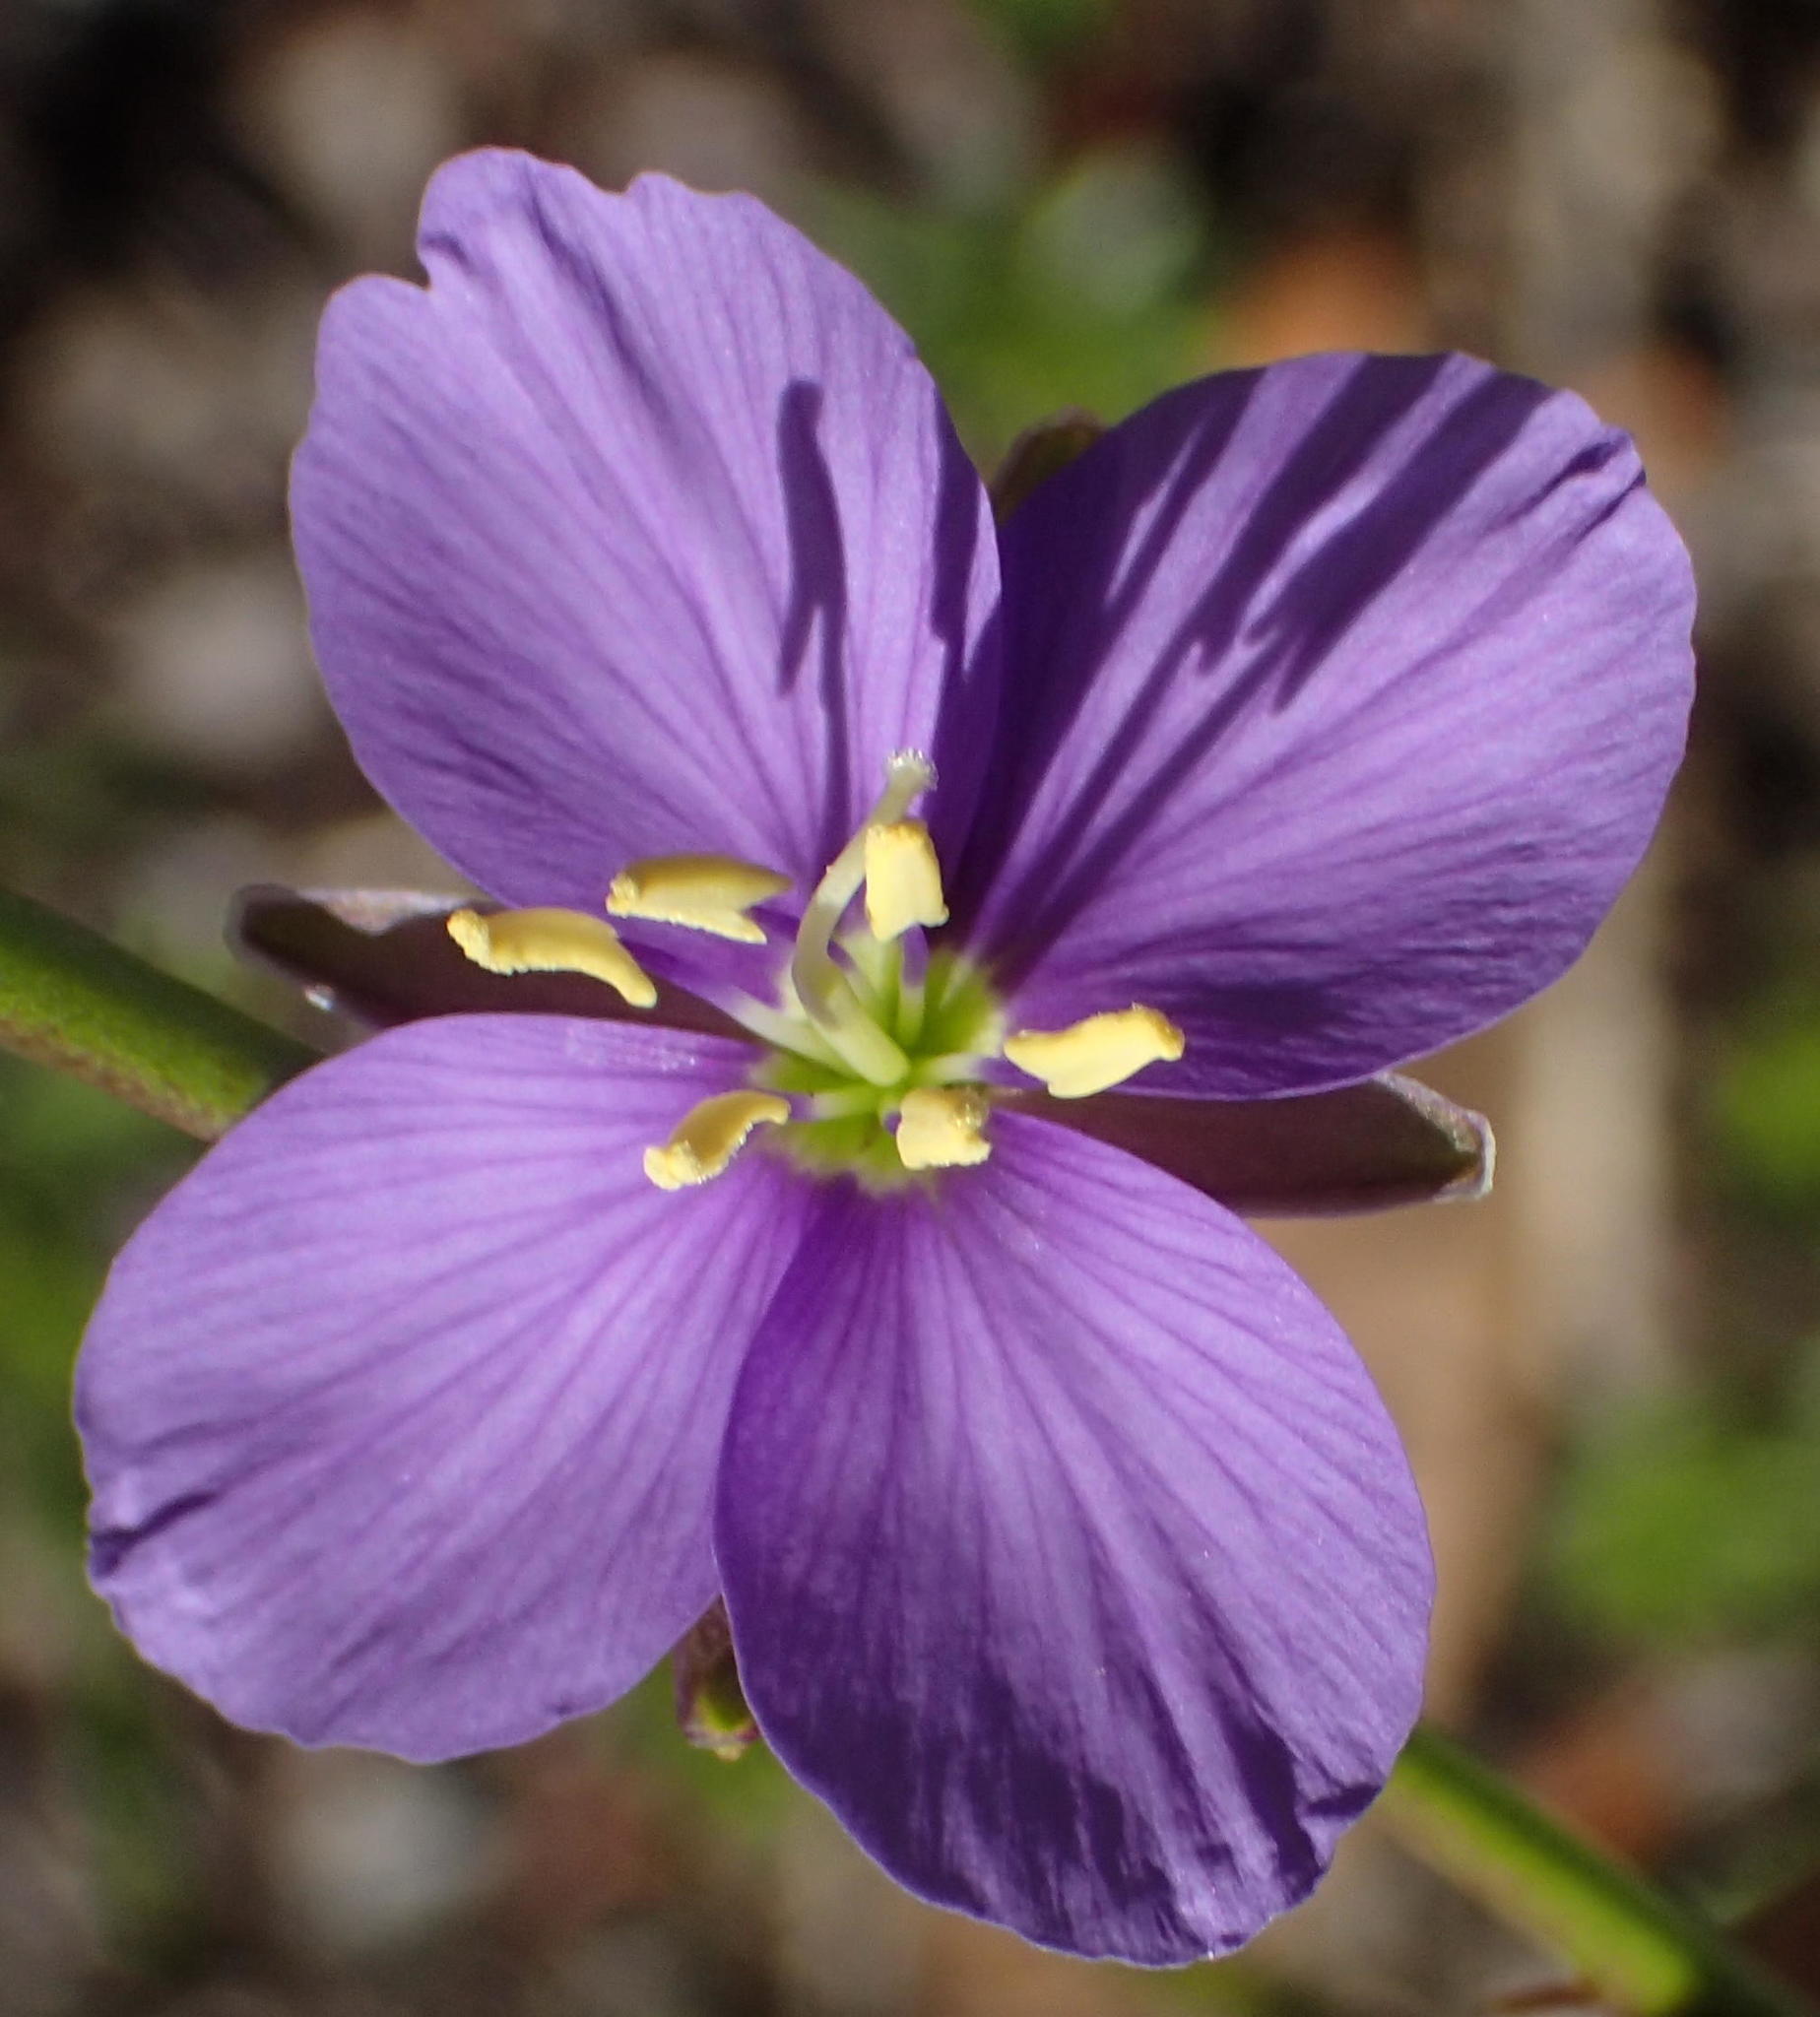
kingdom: Plantae
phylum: Tracheophyta
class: Magnoliopsida
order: Brassicales
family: Brassicaceae
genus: Heliophila
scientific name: Heliophila subulata
